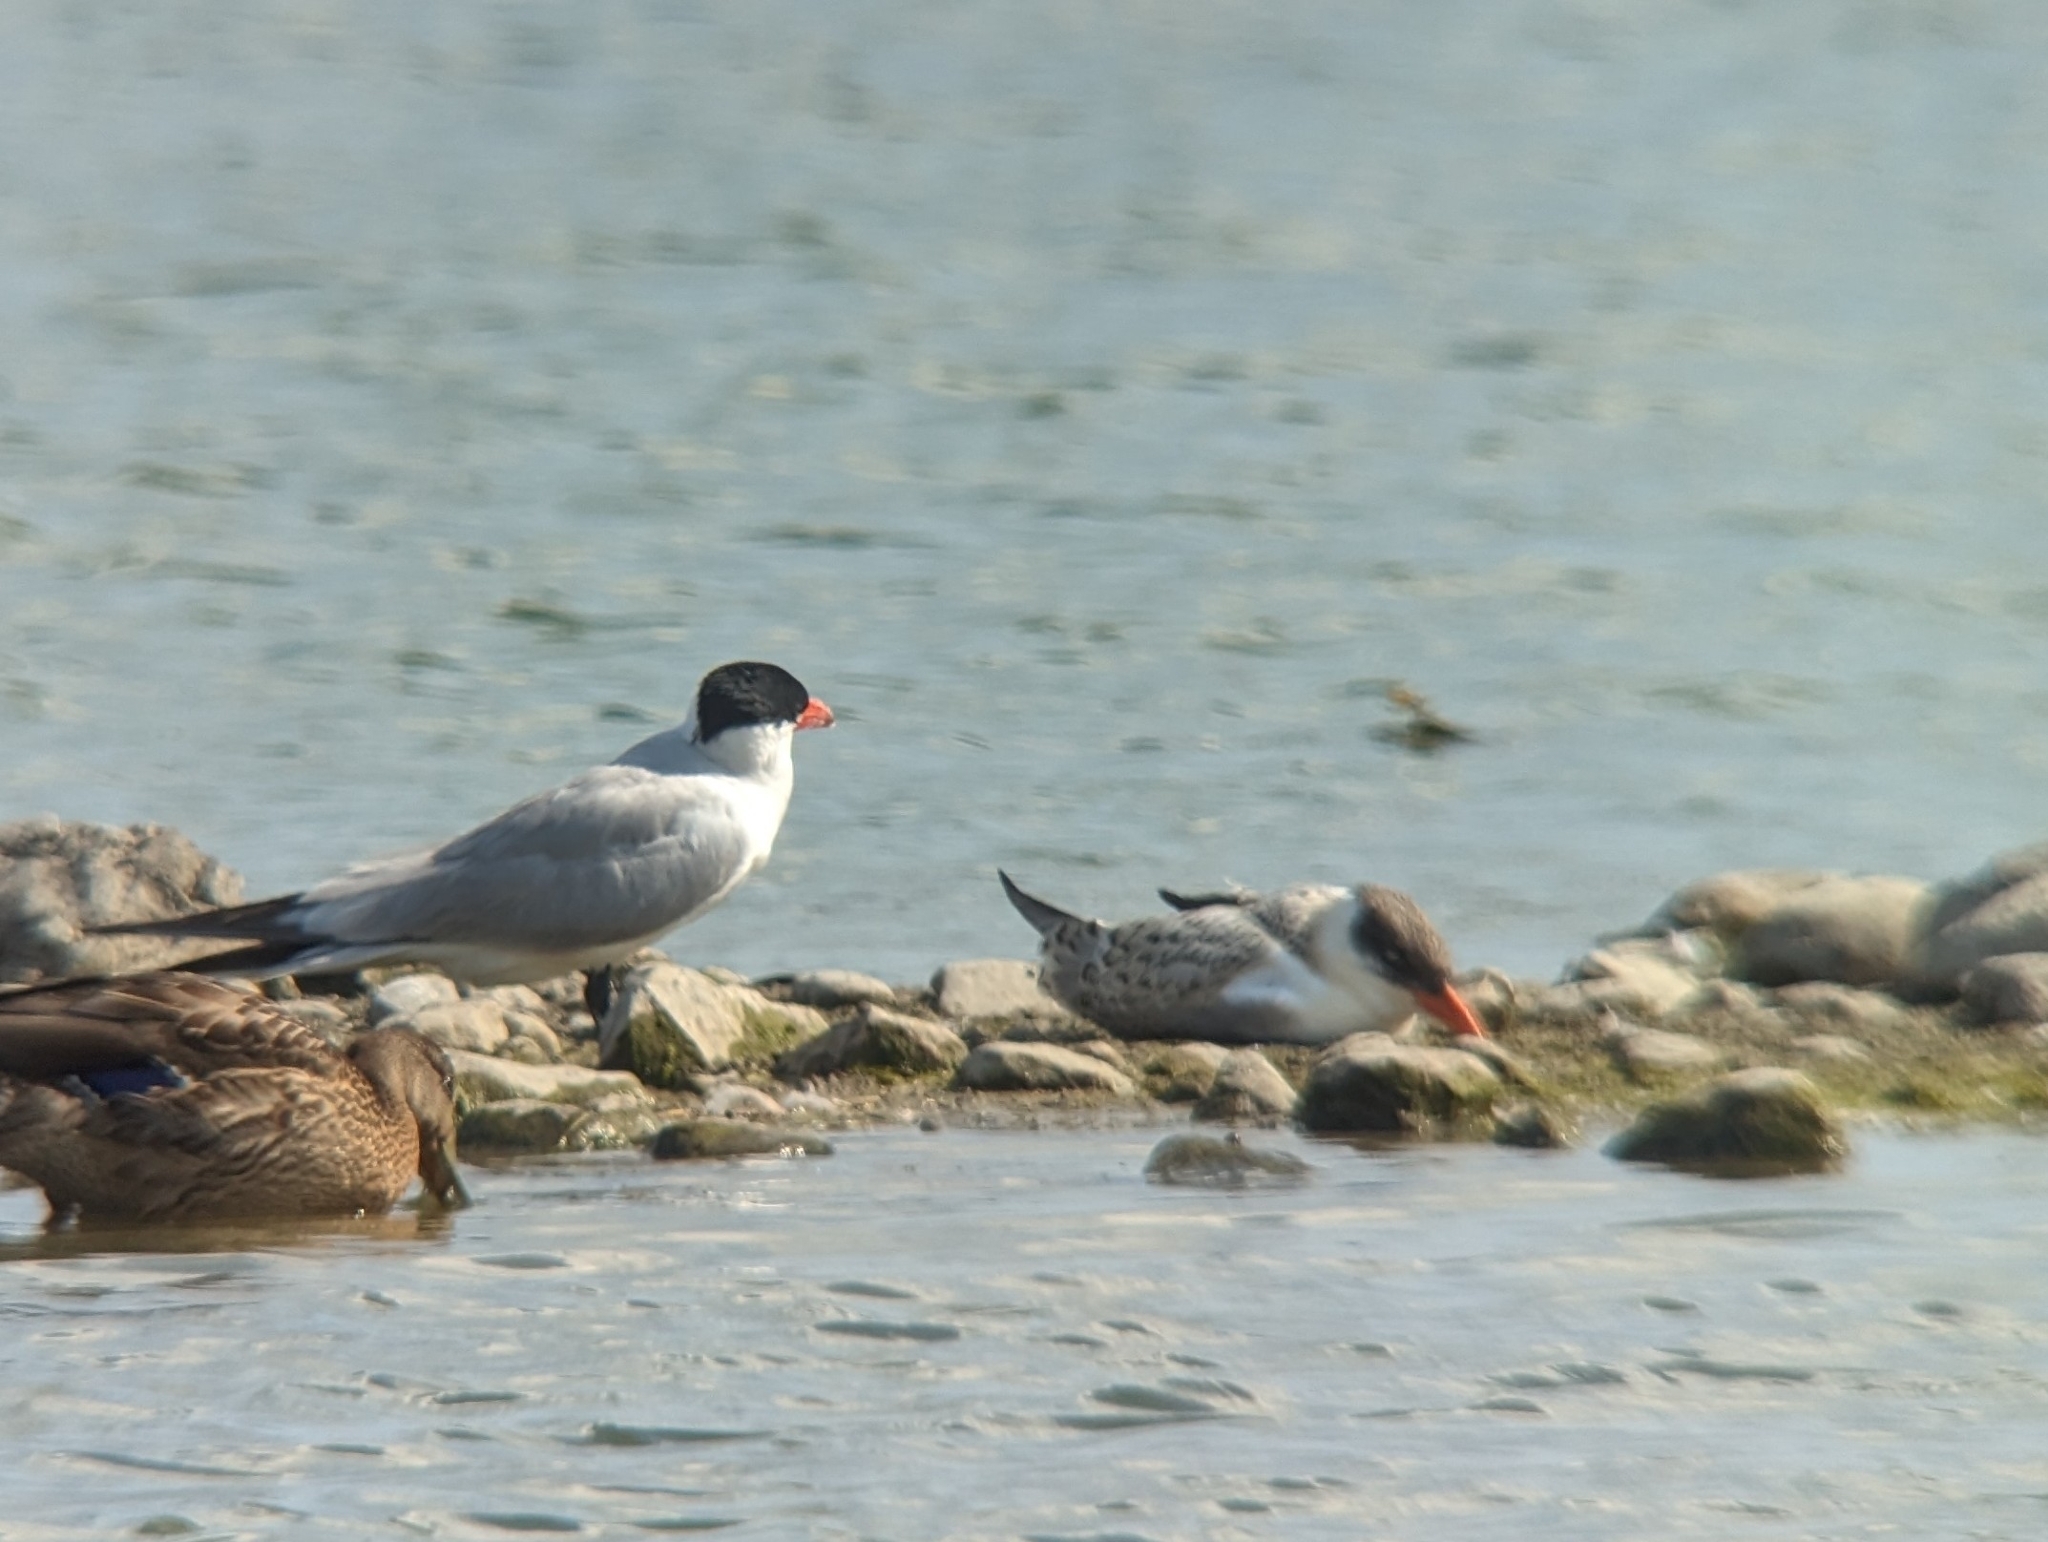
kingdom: Animalia
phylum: Chordata
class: Aves
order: Charadriiformes
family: Laridae
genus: Hydroprogne
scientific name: Hydroprogne caspia
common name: Caspian tern
